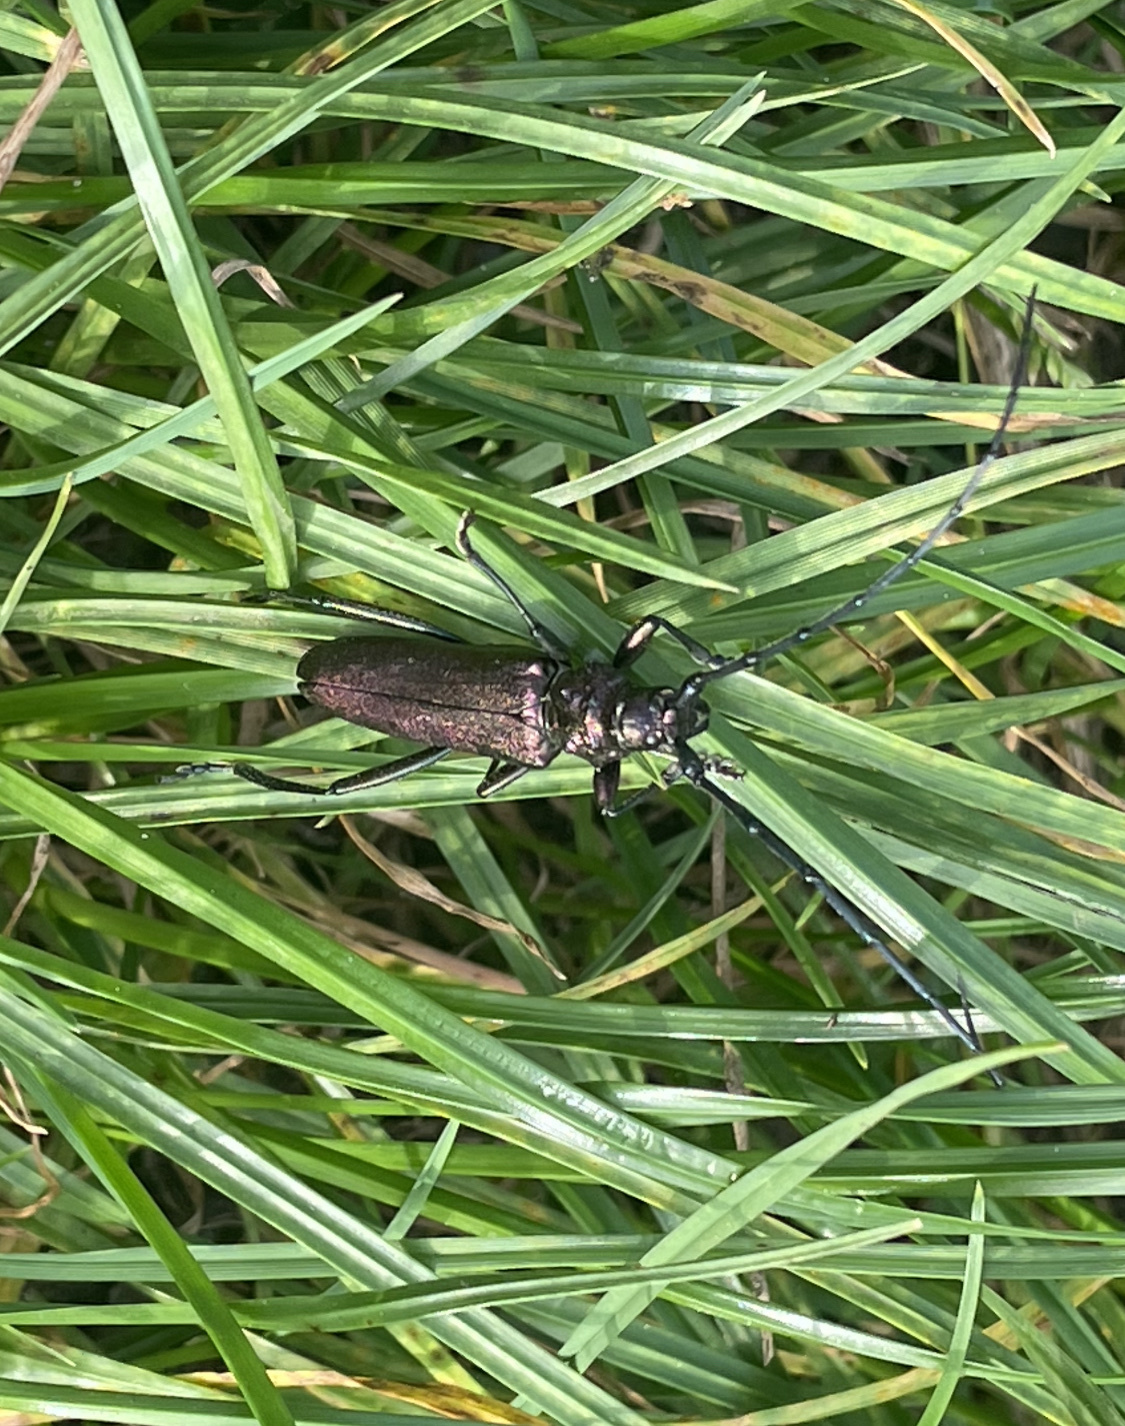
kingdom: Animalia
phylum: Arthropoda
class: Insecta
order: Coleoptera
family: Cerambycidae
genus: Aromia
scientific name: Aromia moschata
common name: Musk beetle
